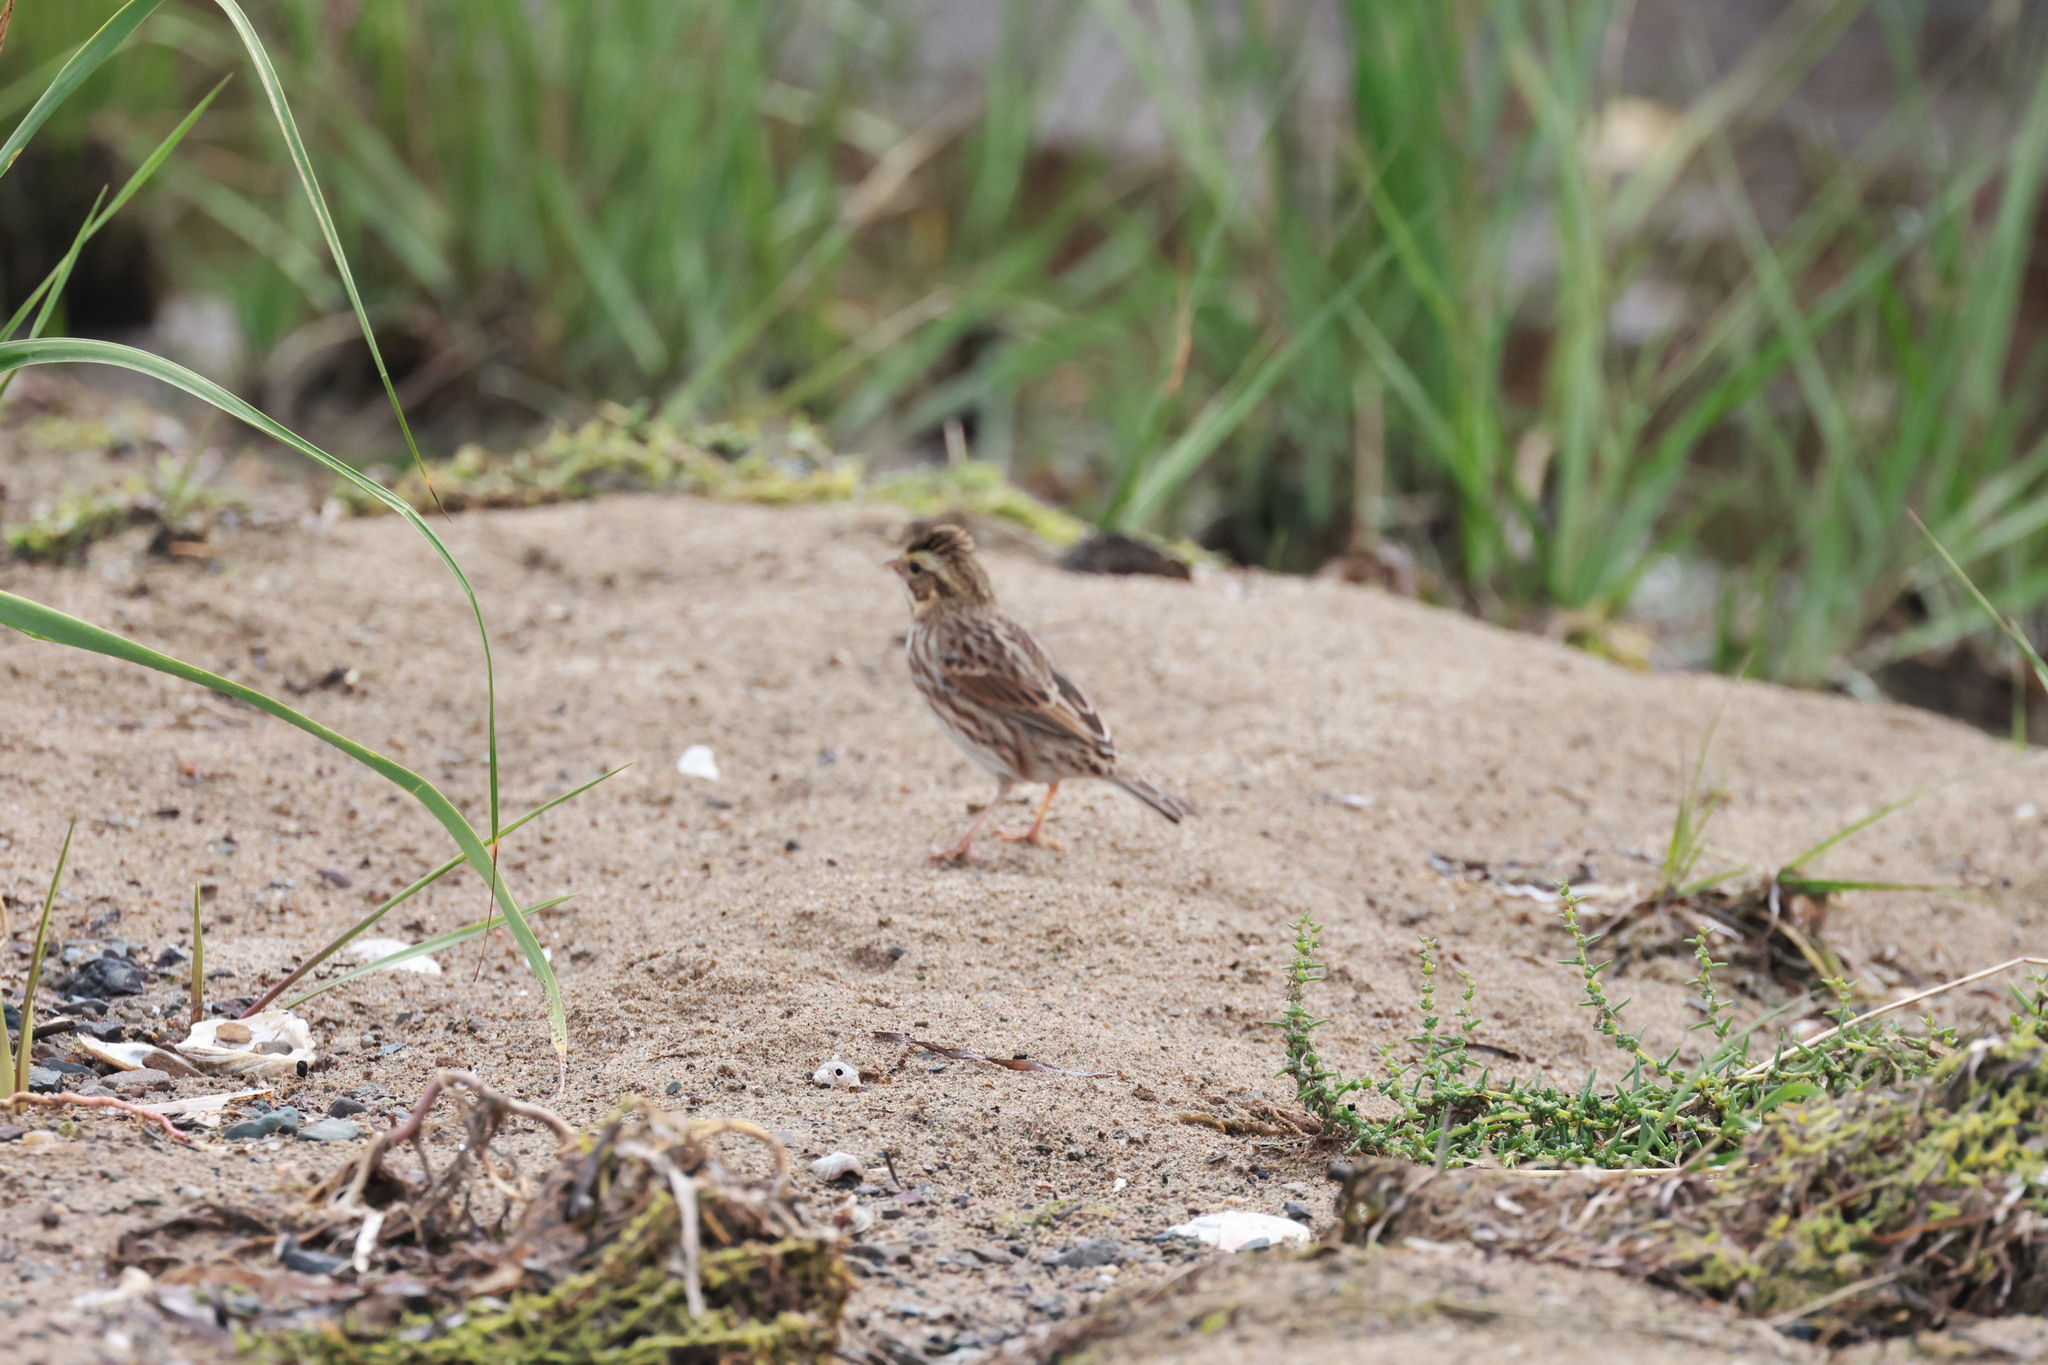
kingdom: Animalia
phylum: Chordata
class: Aves
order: Passeriformes
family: Passerellidae
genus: Passerculus
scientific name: Passerculus sandwichensis
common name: Savannah sparrow
